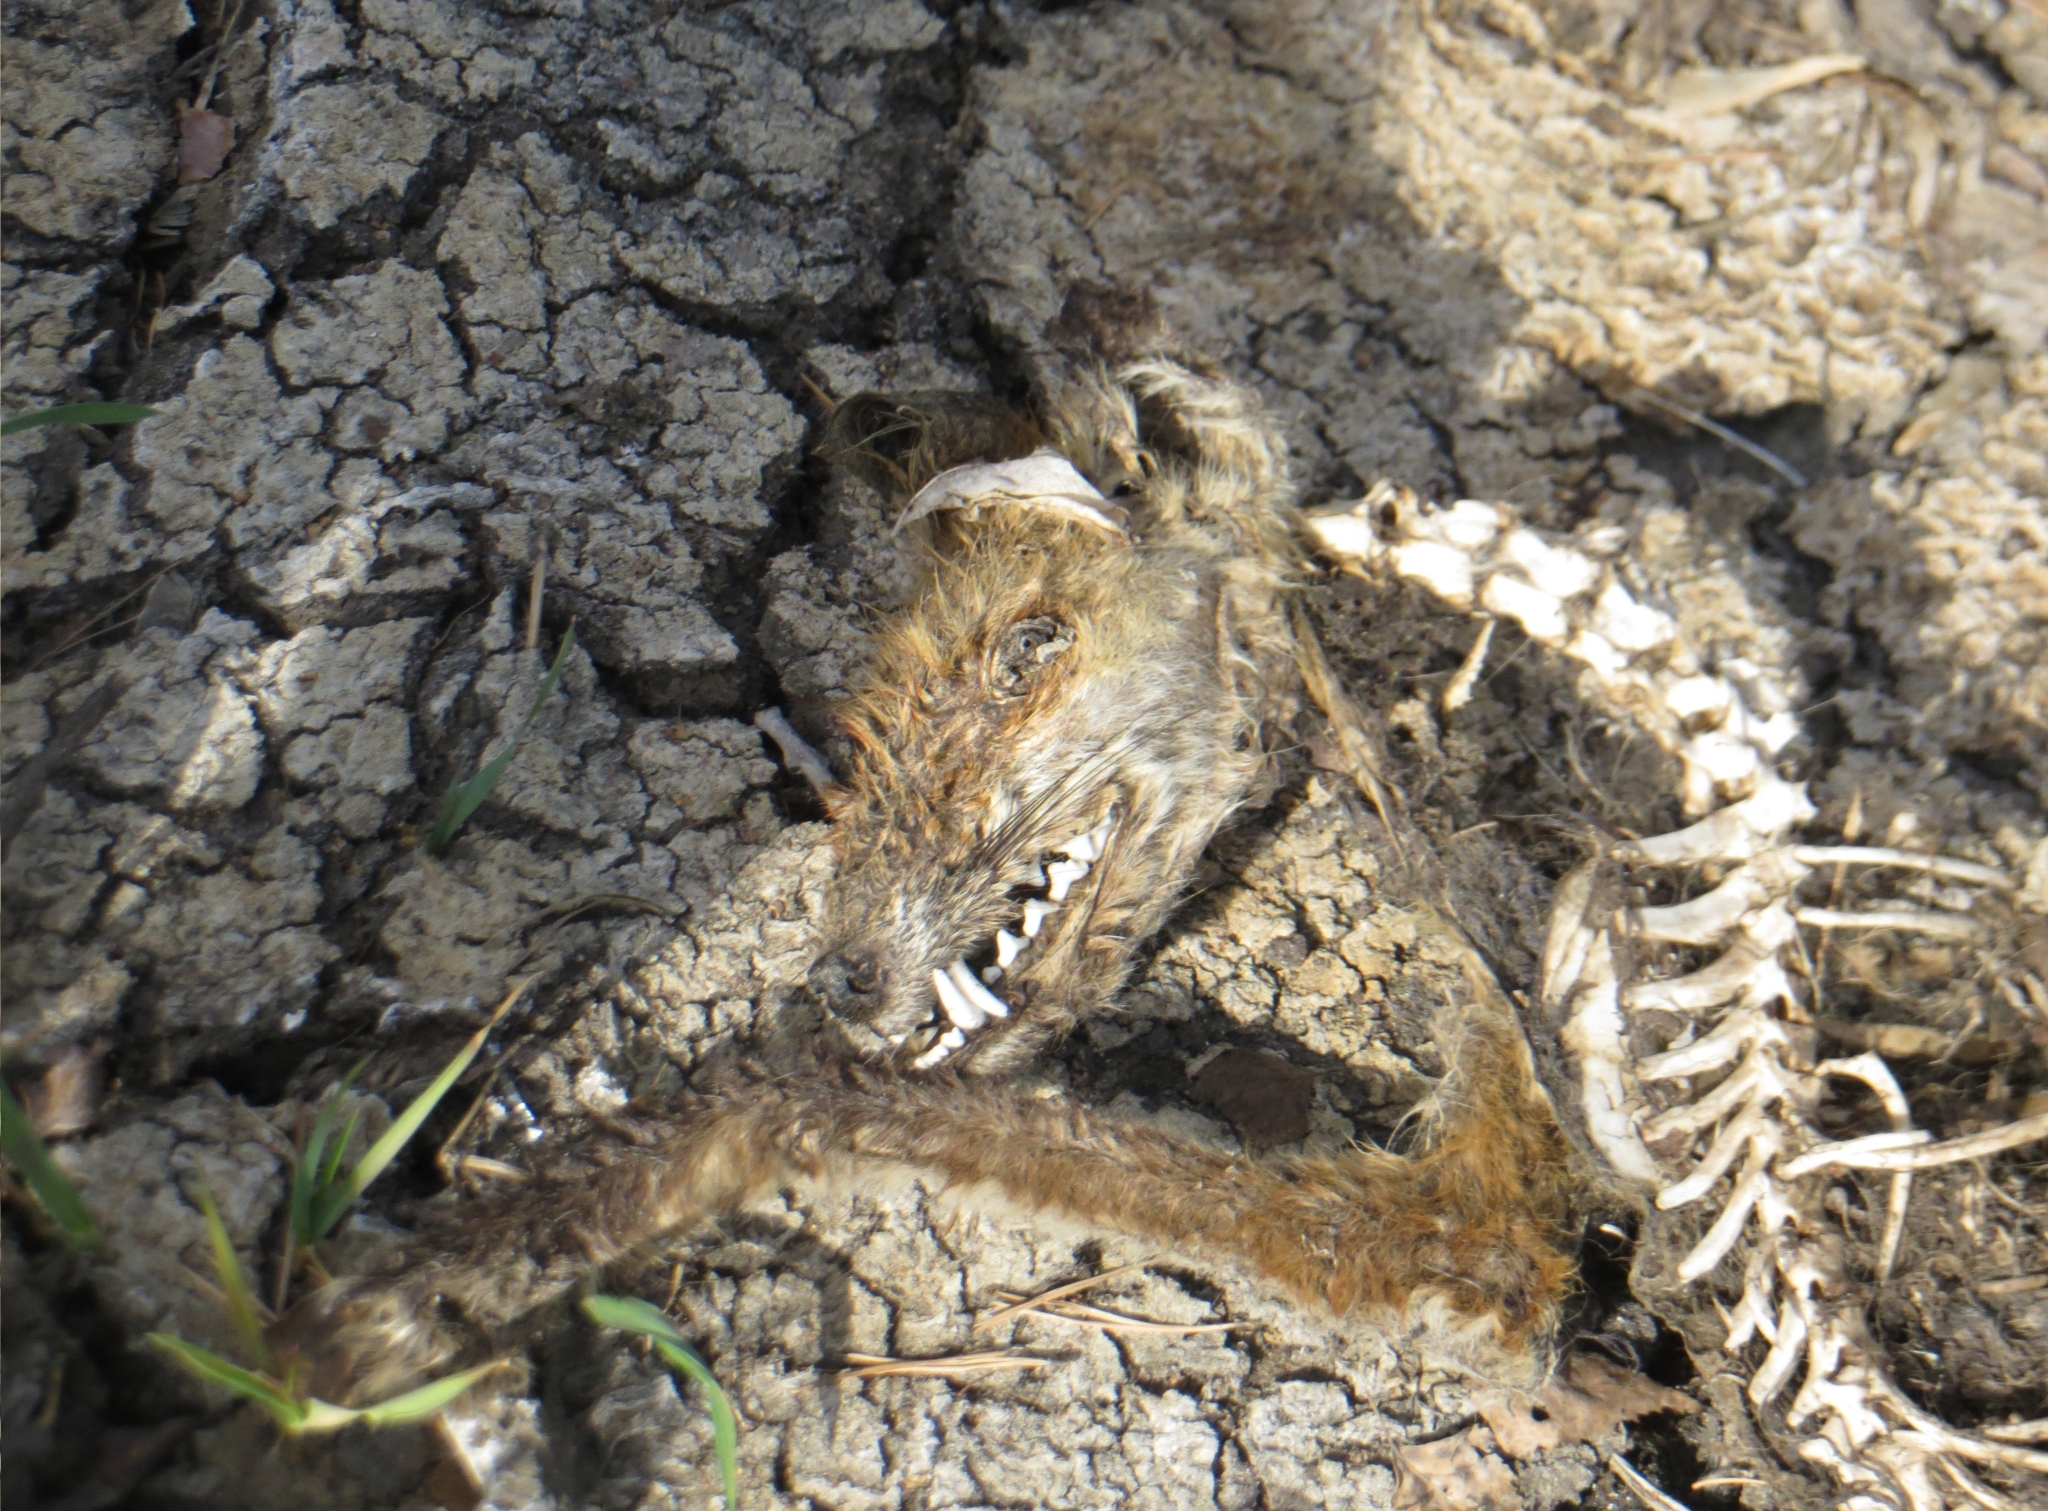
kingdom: Animalia
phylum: Chordata
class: Mammalia
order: Carnivora
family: Canidae
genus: Vulpes
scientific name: Vulpes vulpes
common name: Red fox
